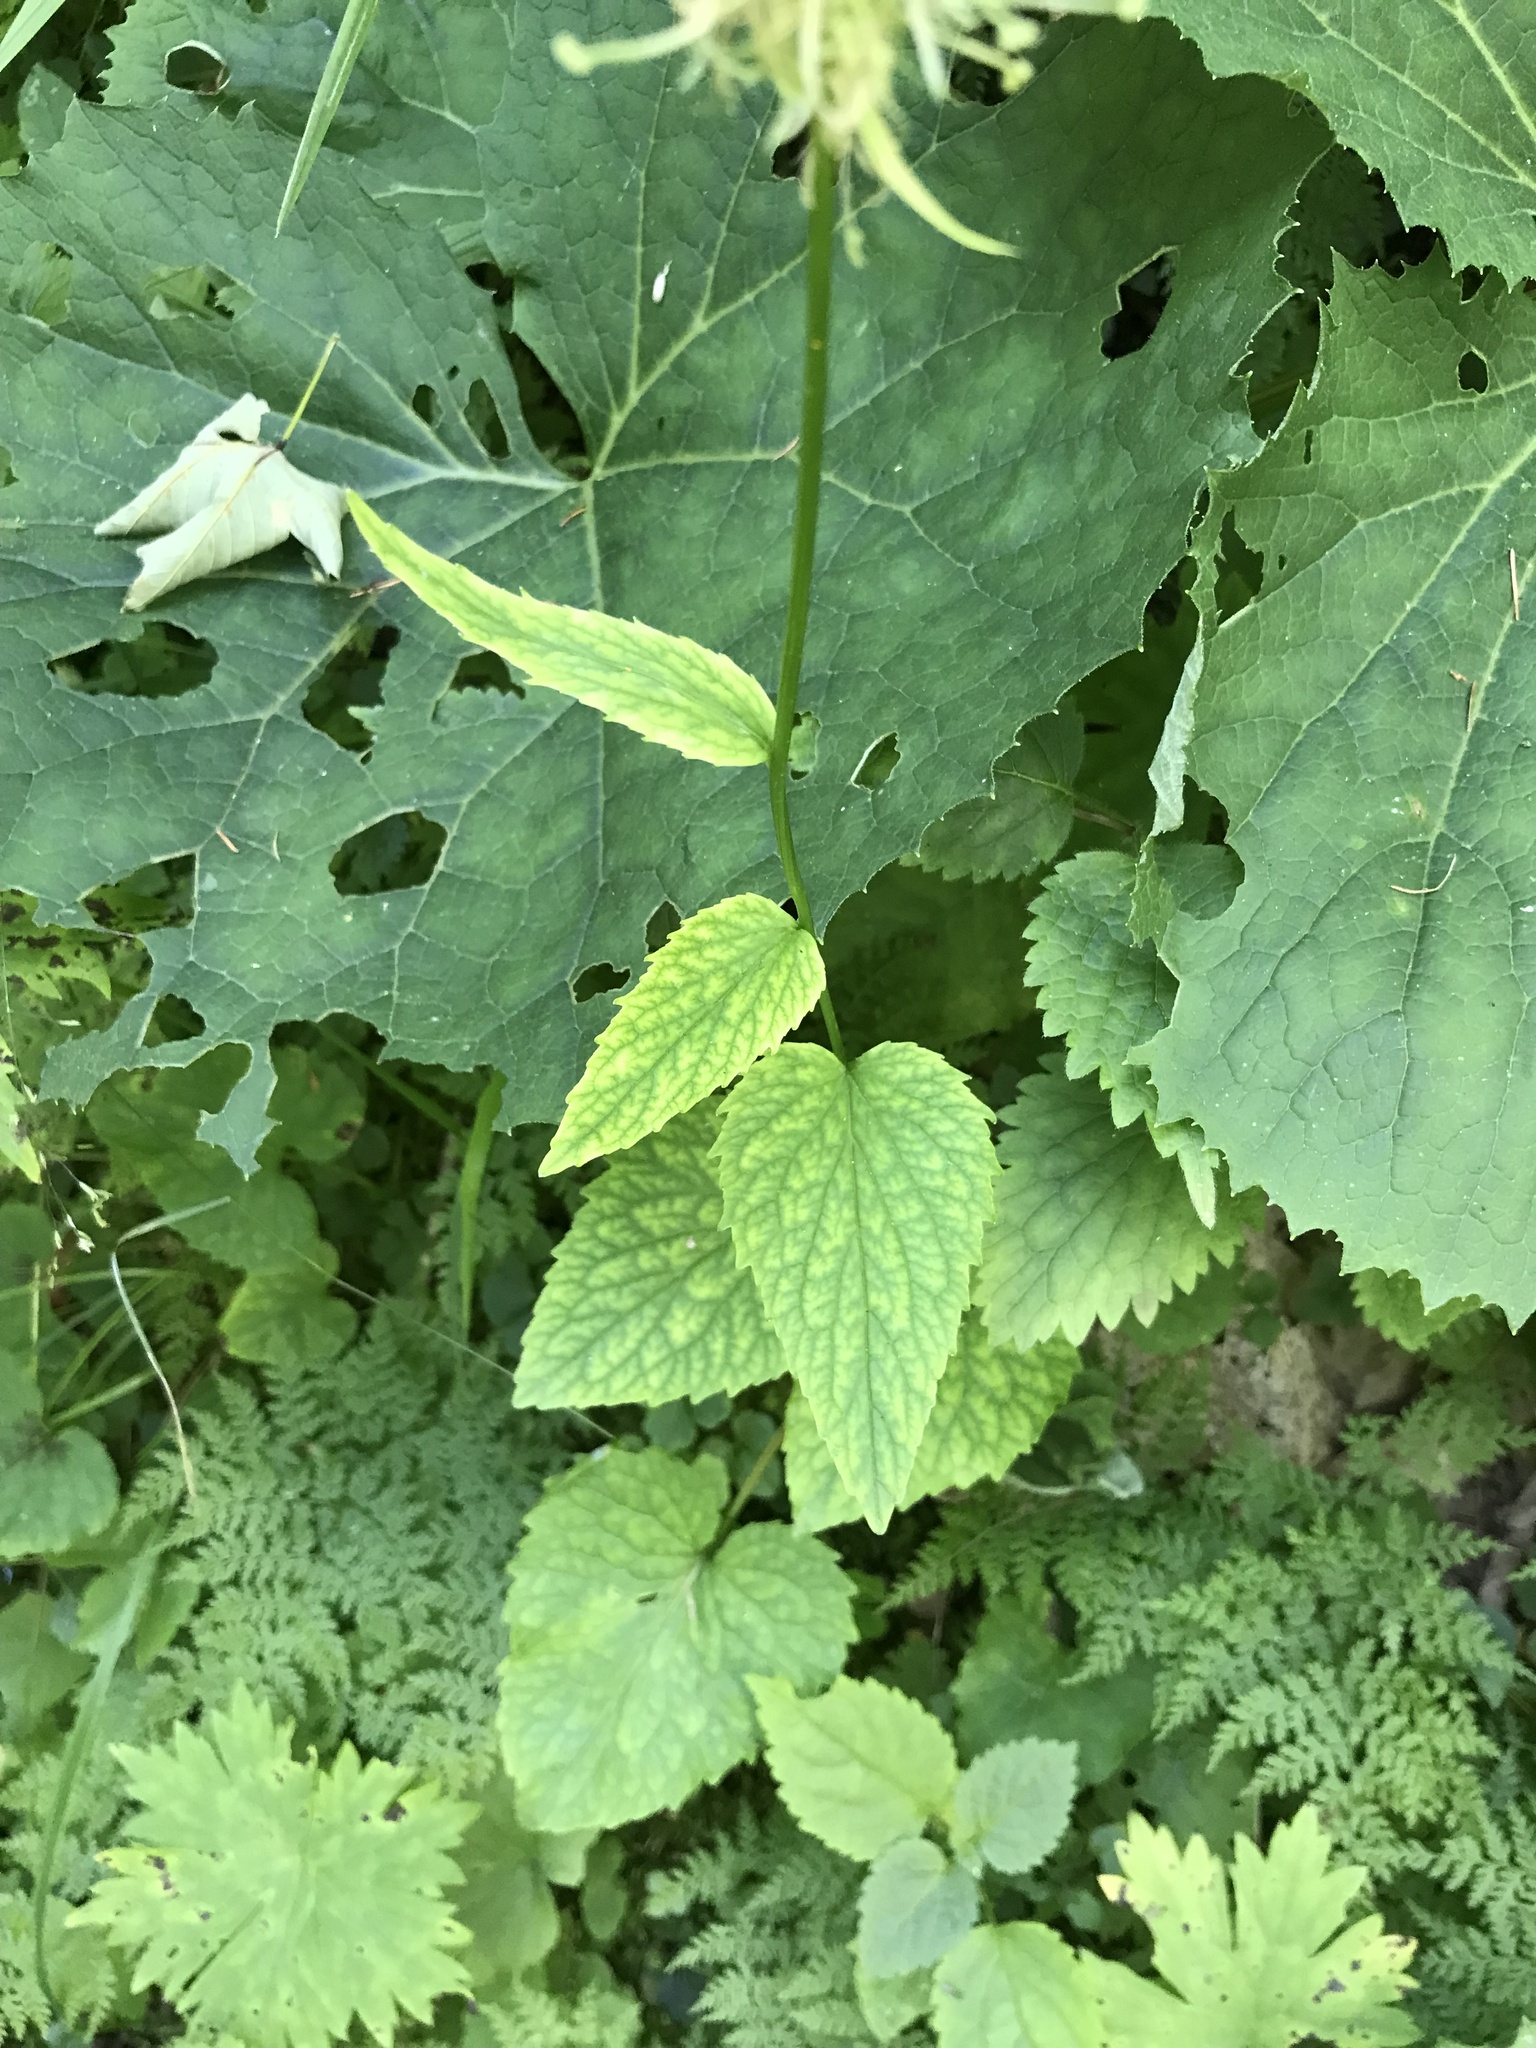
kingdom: Plantae
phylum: Tracheophyta
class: Magnoliopsida
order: Asterales
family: Campanulaceae
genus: Phyteuma
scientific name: Phyteuma spicatum
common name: Spiked rampion
